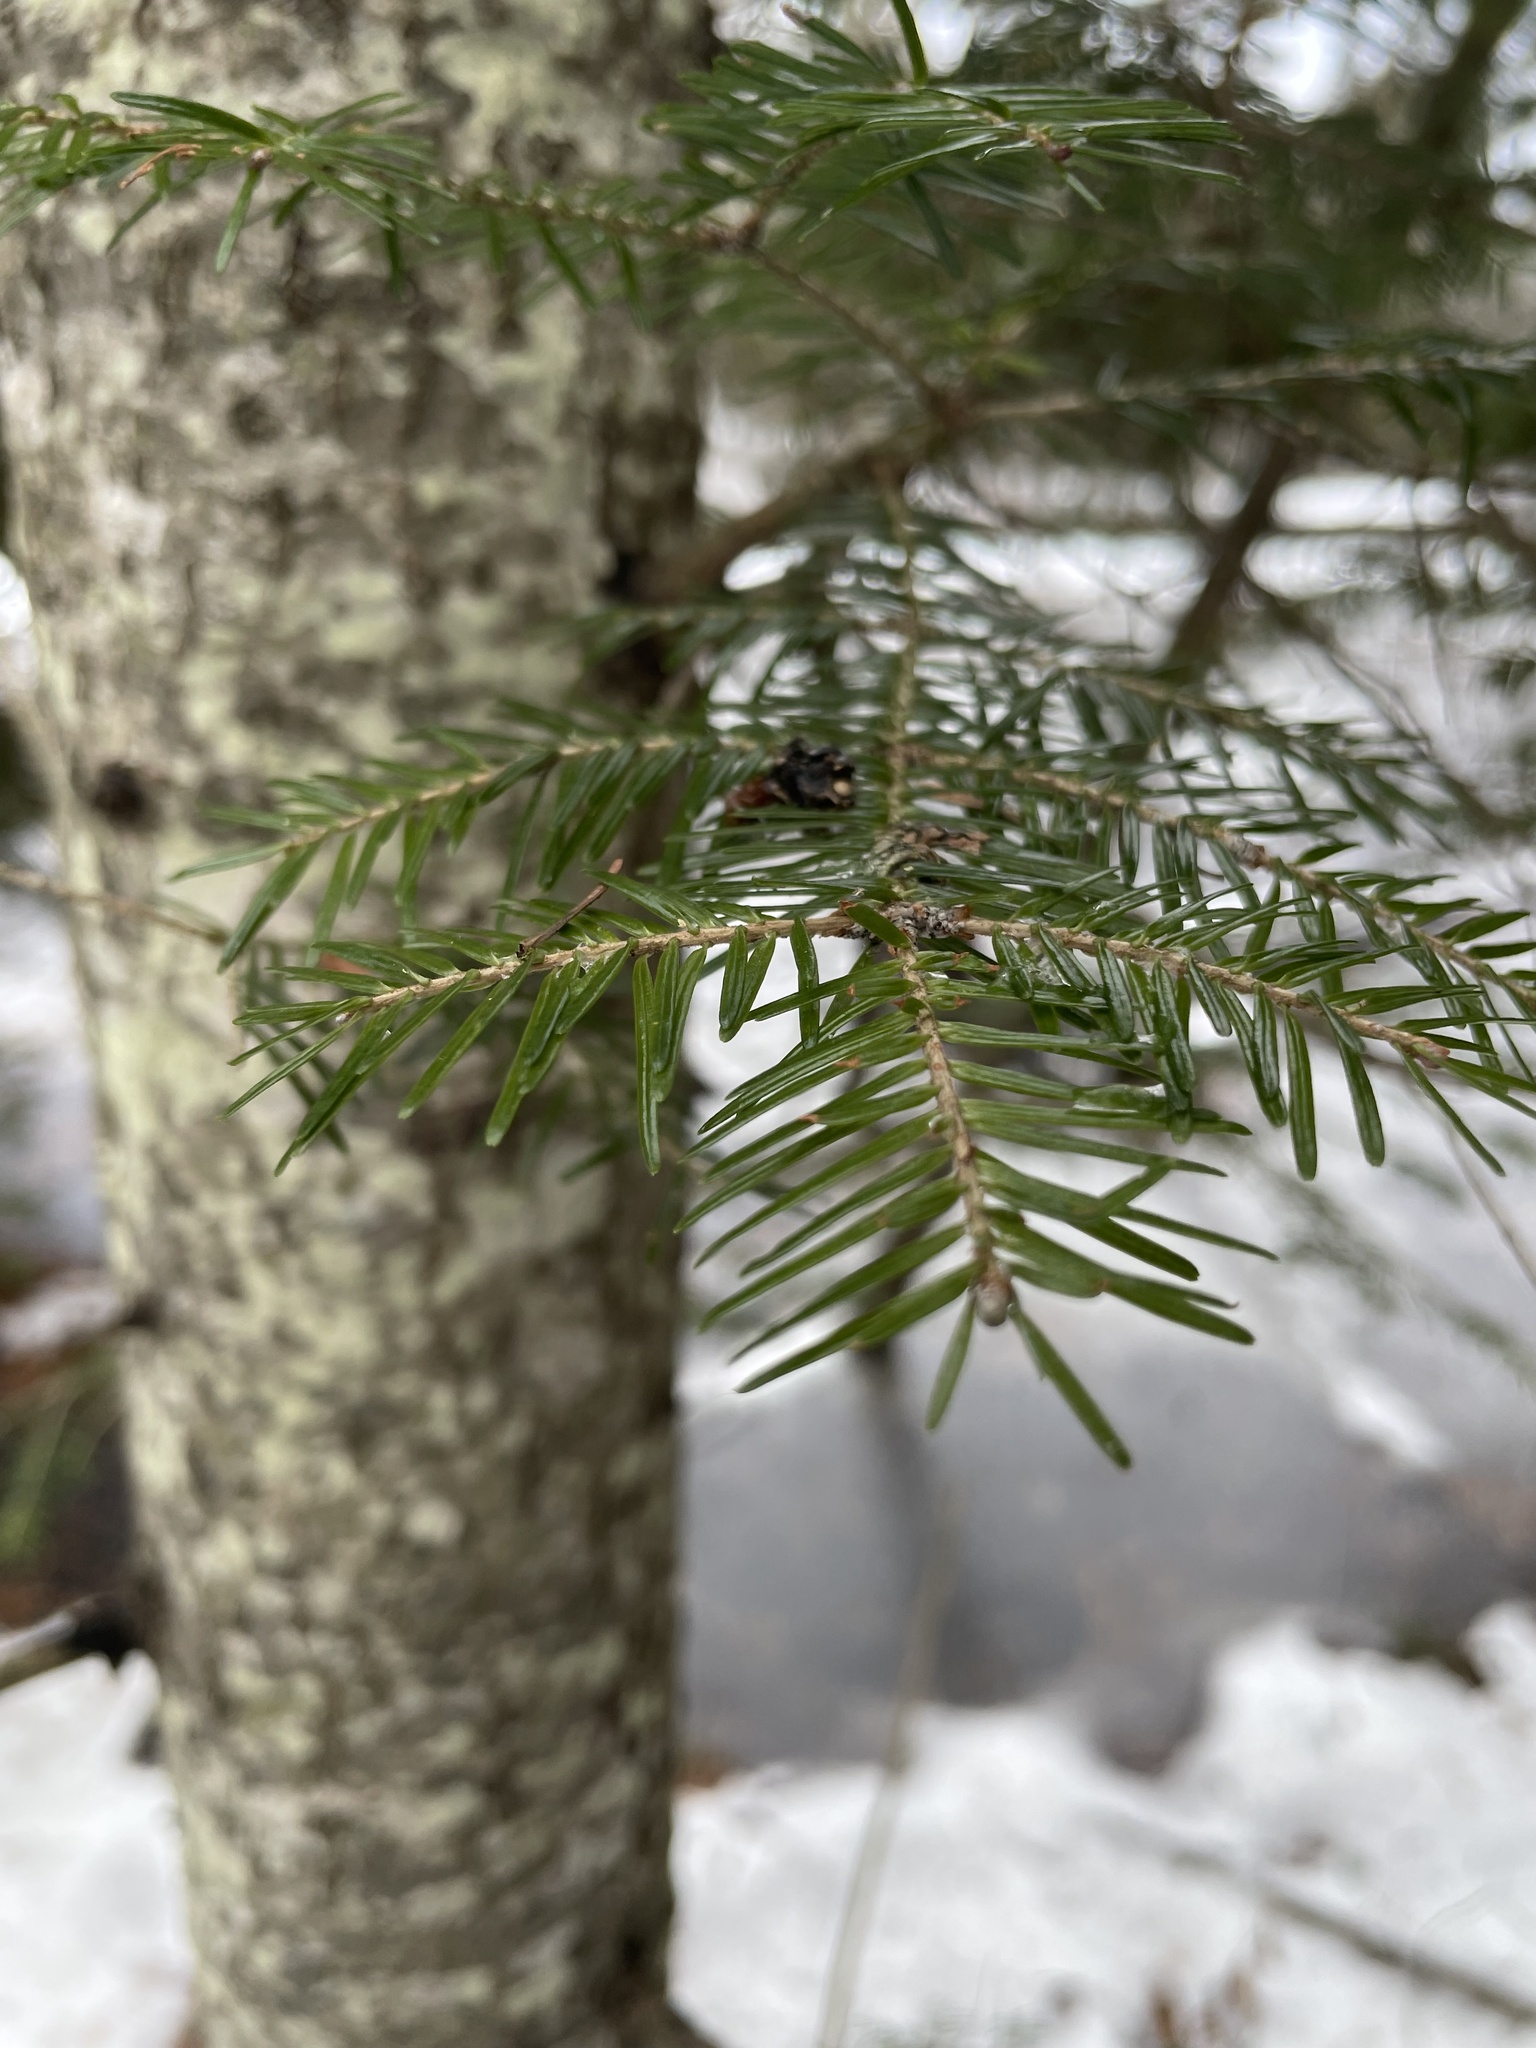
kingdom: Plantae
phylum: Tracheophyta
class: Pinopsida
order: Pinales
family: Pinaceae
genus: Abies
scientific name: Abies balsamea
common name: Balsam fir
